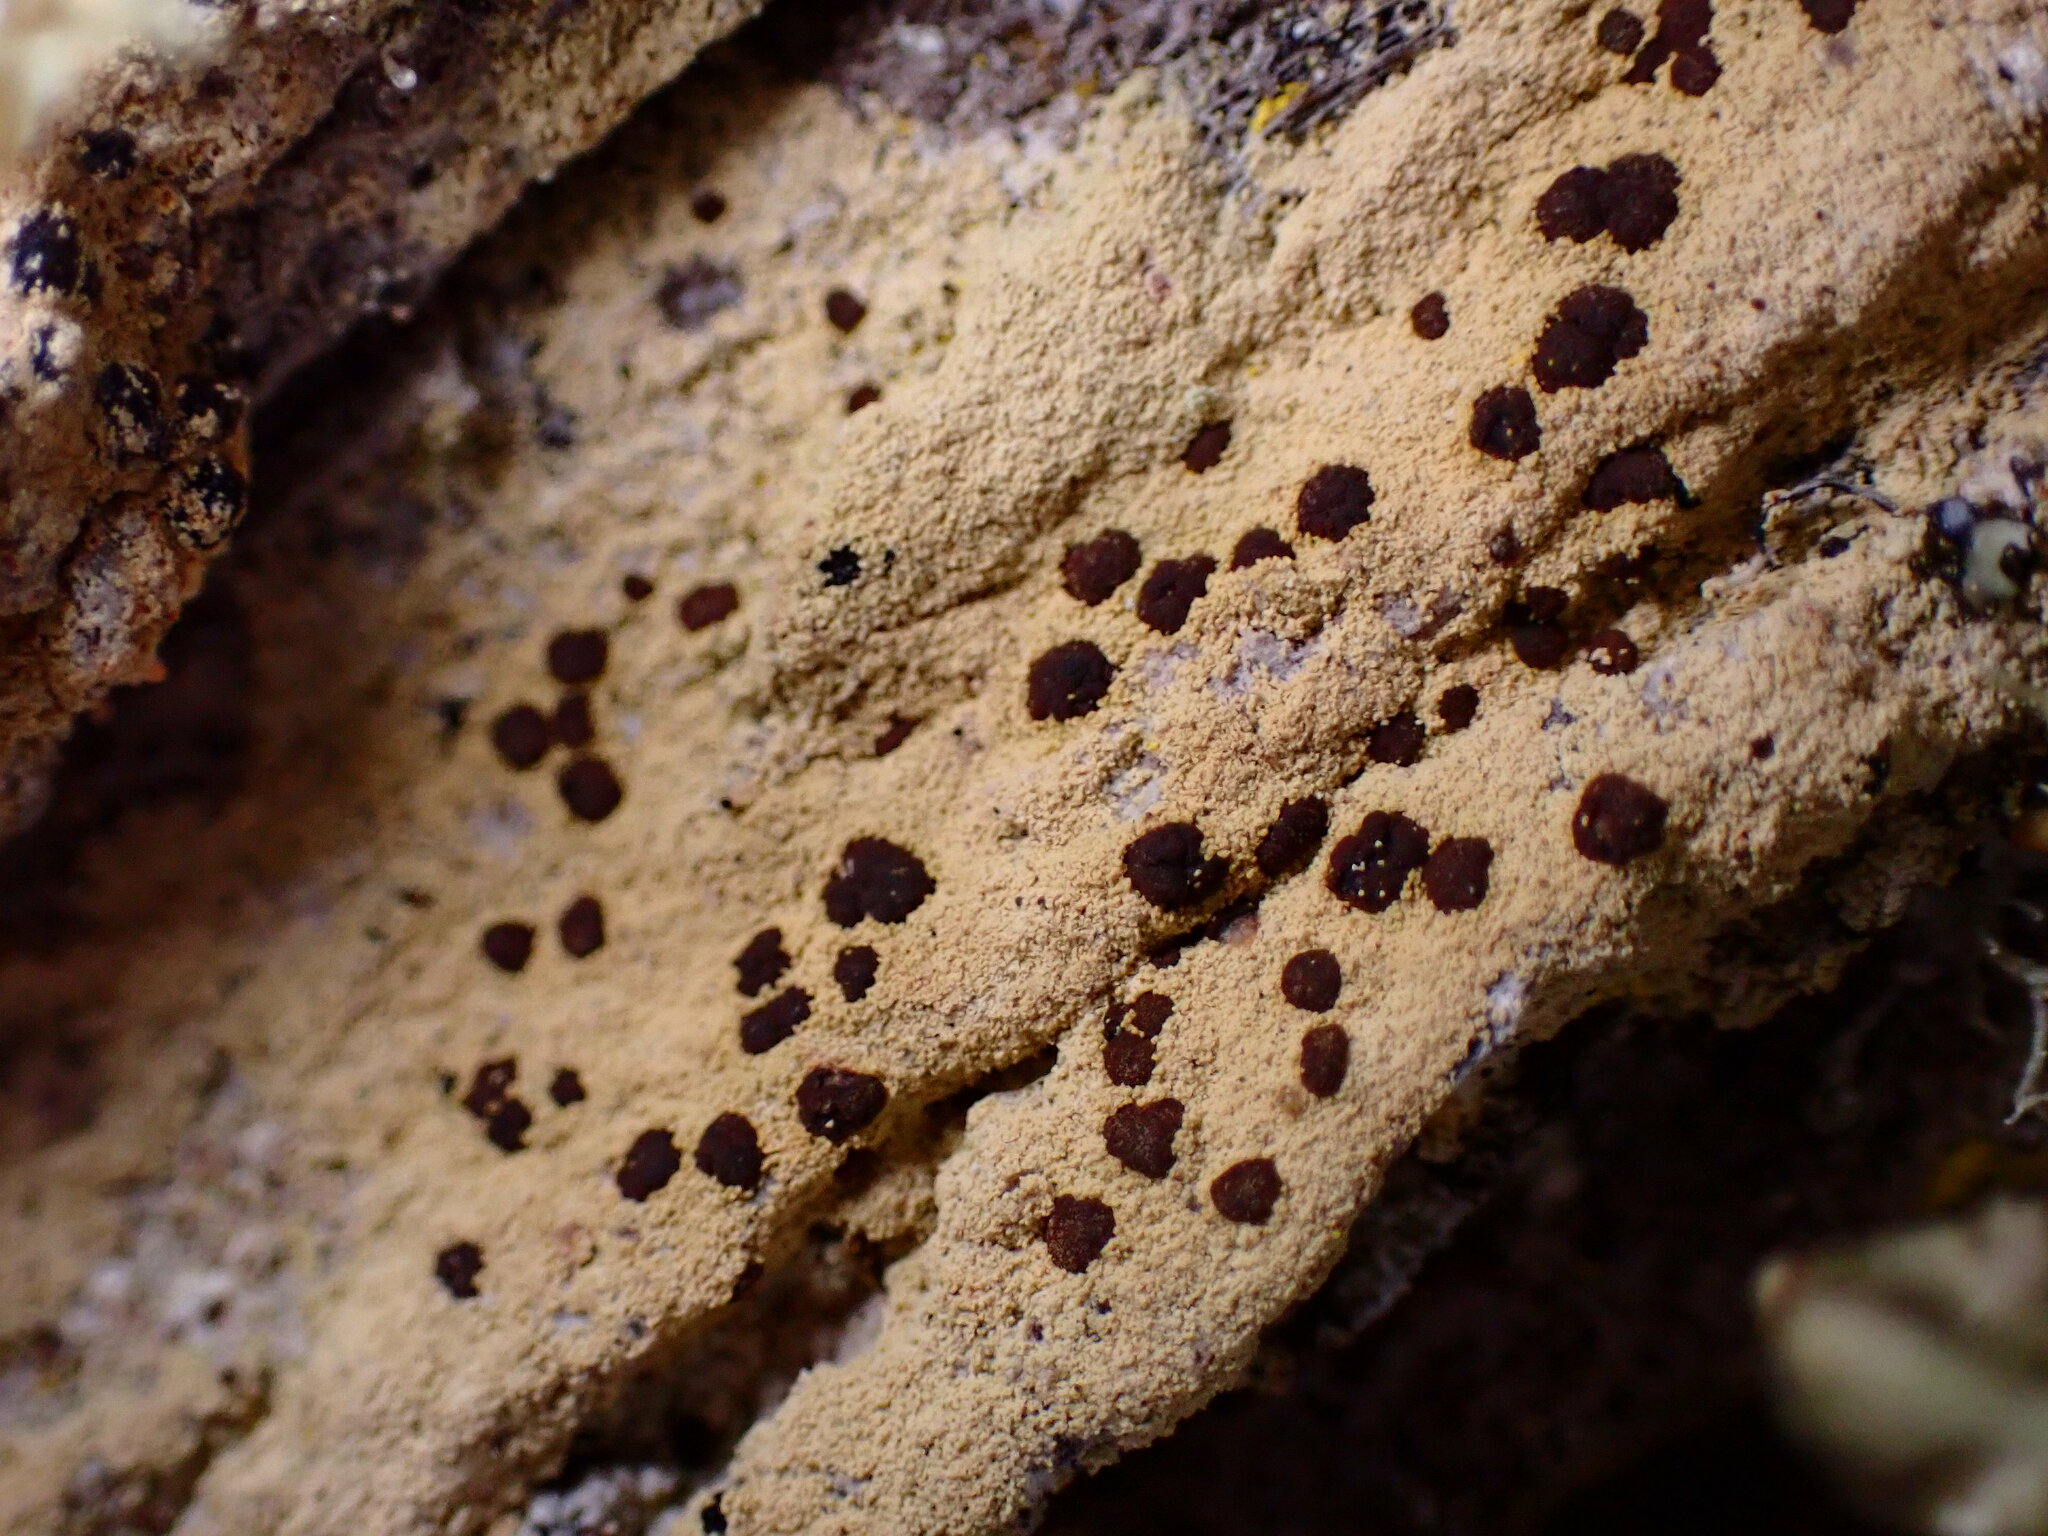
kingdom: Fungi
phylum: Ascomycota
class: Lecanoromycetes
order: Lecanorales
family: Lecanoraceae
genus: Pyrrhospora
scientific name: Pyrrhospora quernea
